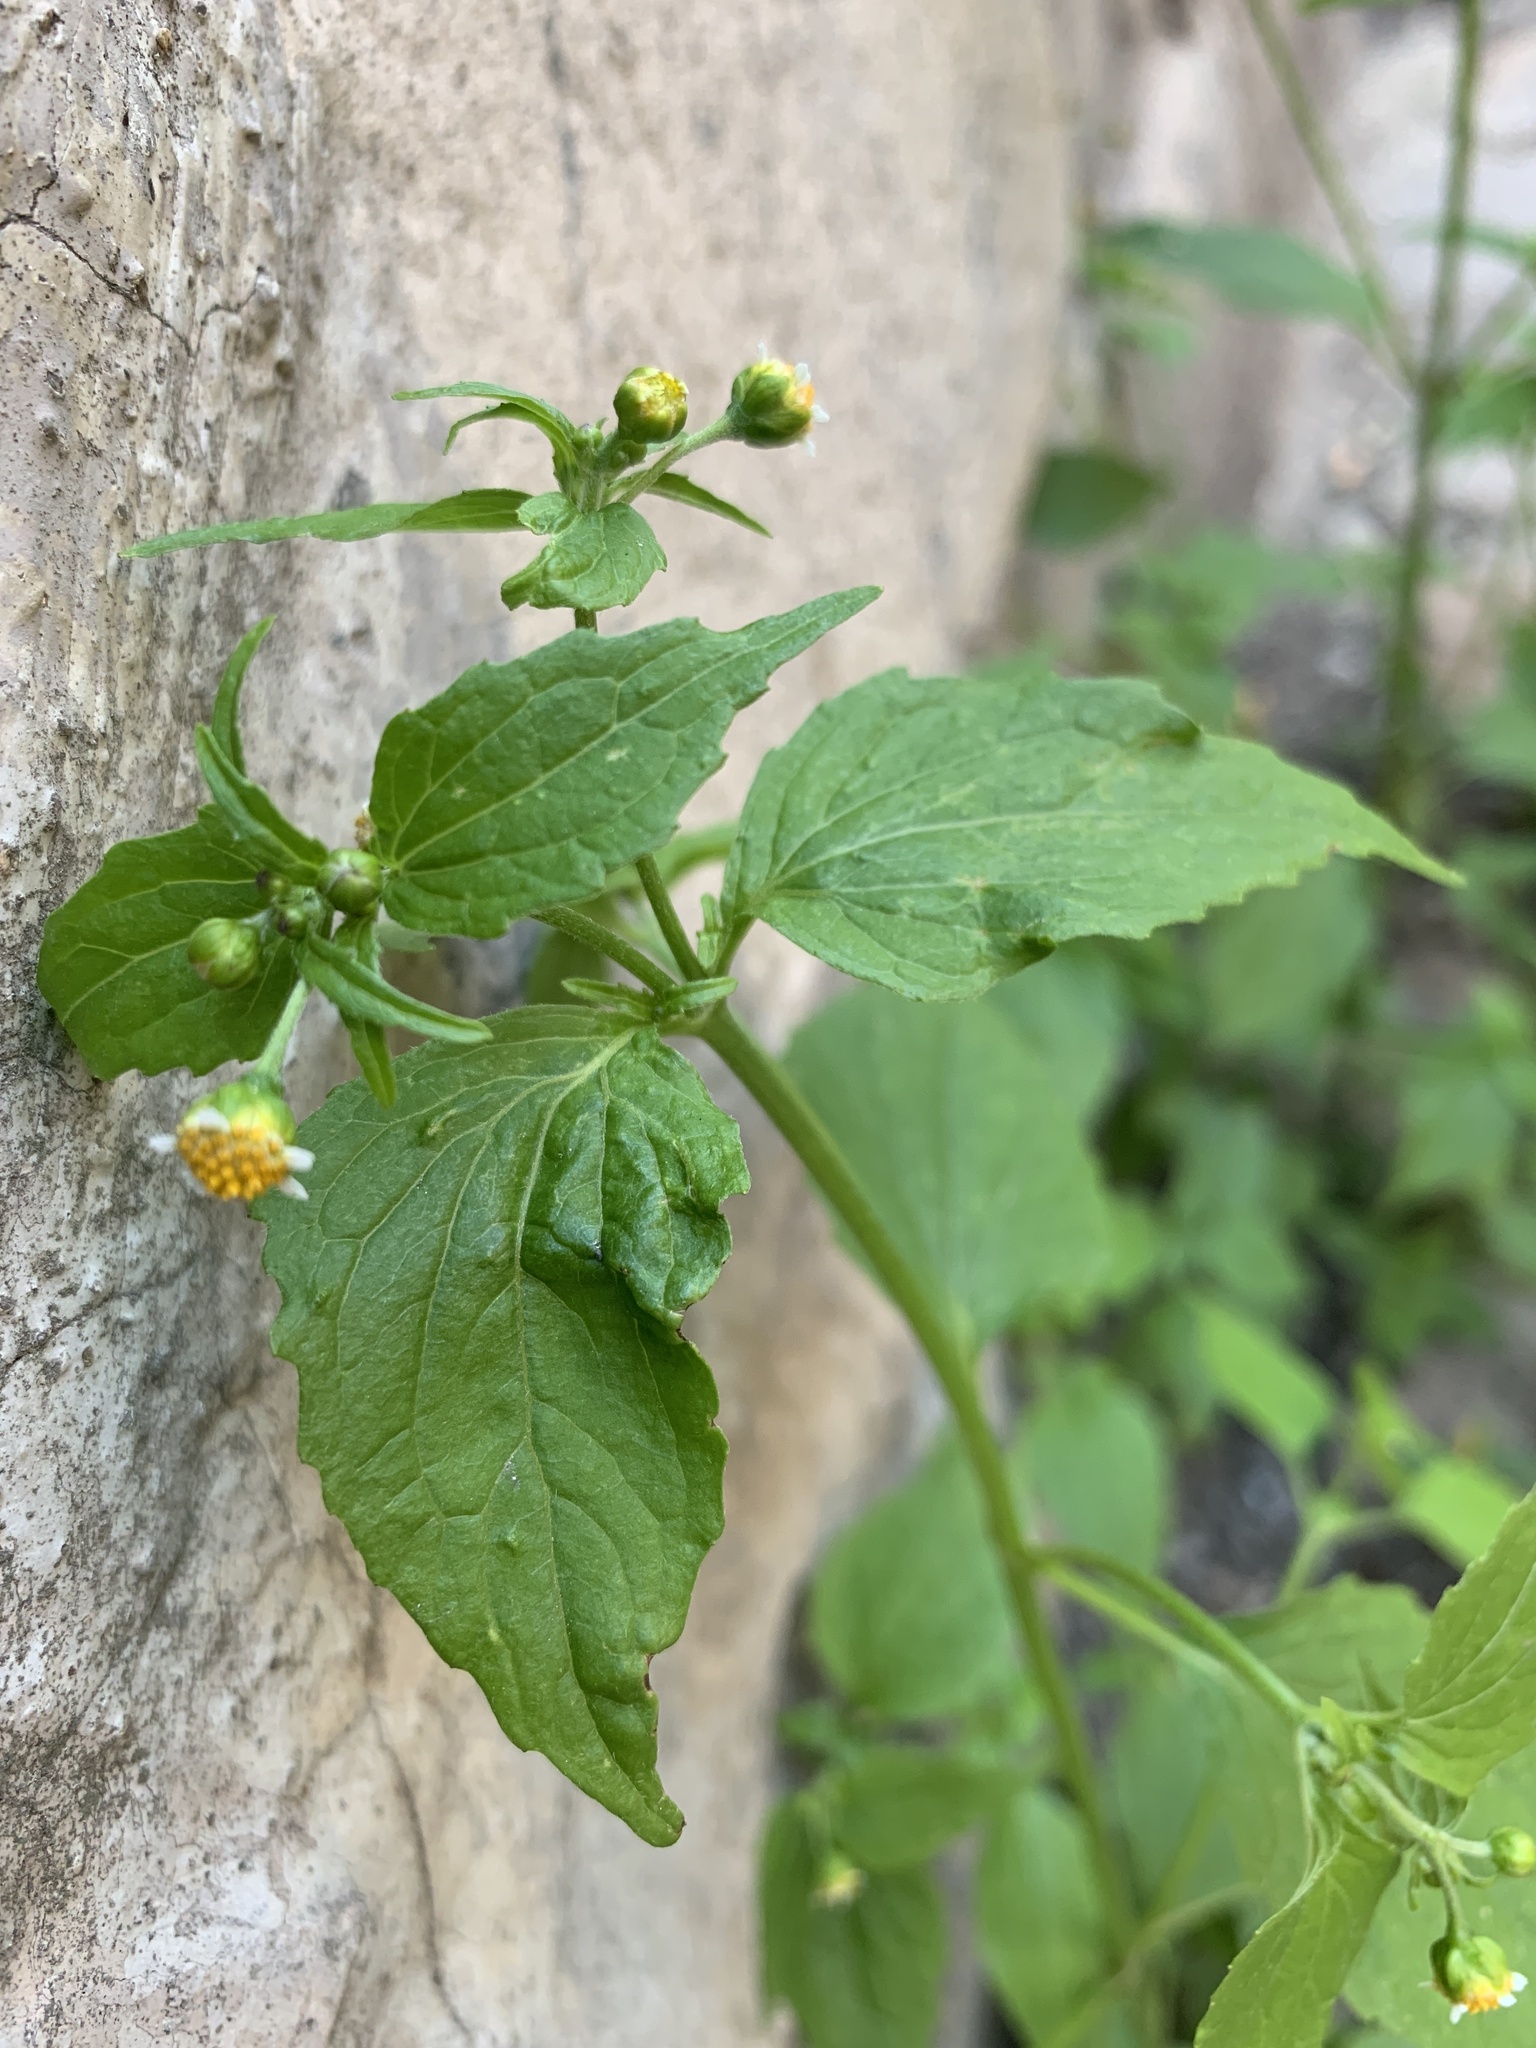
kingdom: Plantae
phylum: Tracheophyta
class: Magnoliopsida
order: Asterales
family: Asteraceae
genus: Galinsoga
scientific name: Galinsoga parviflora
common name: Gallant soldier
